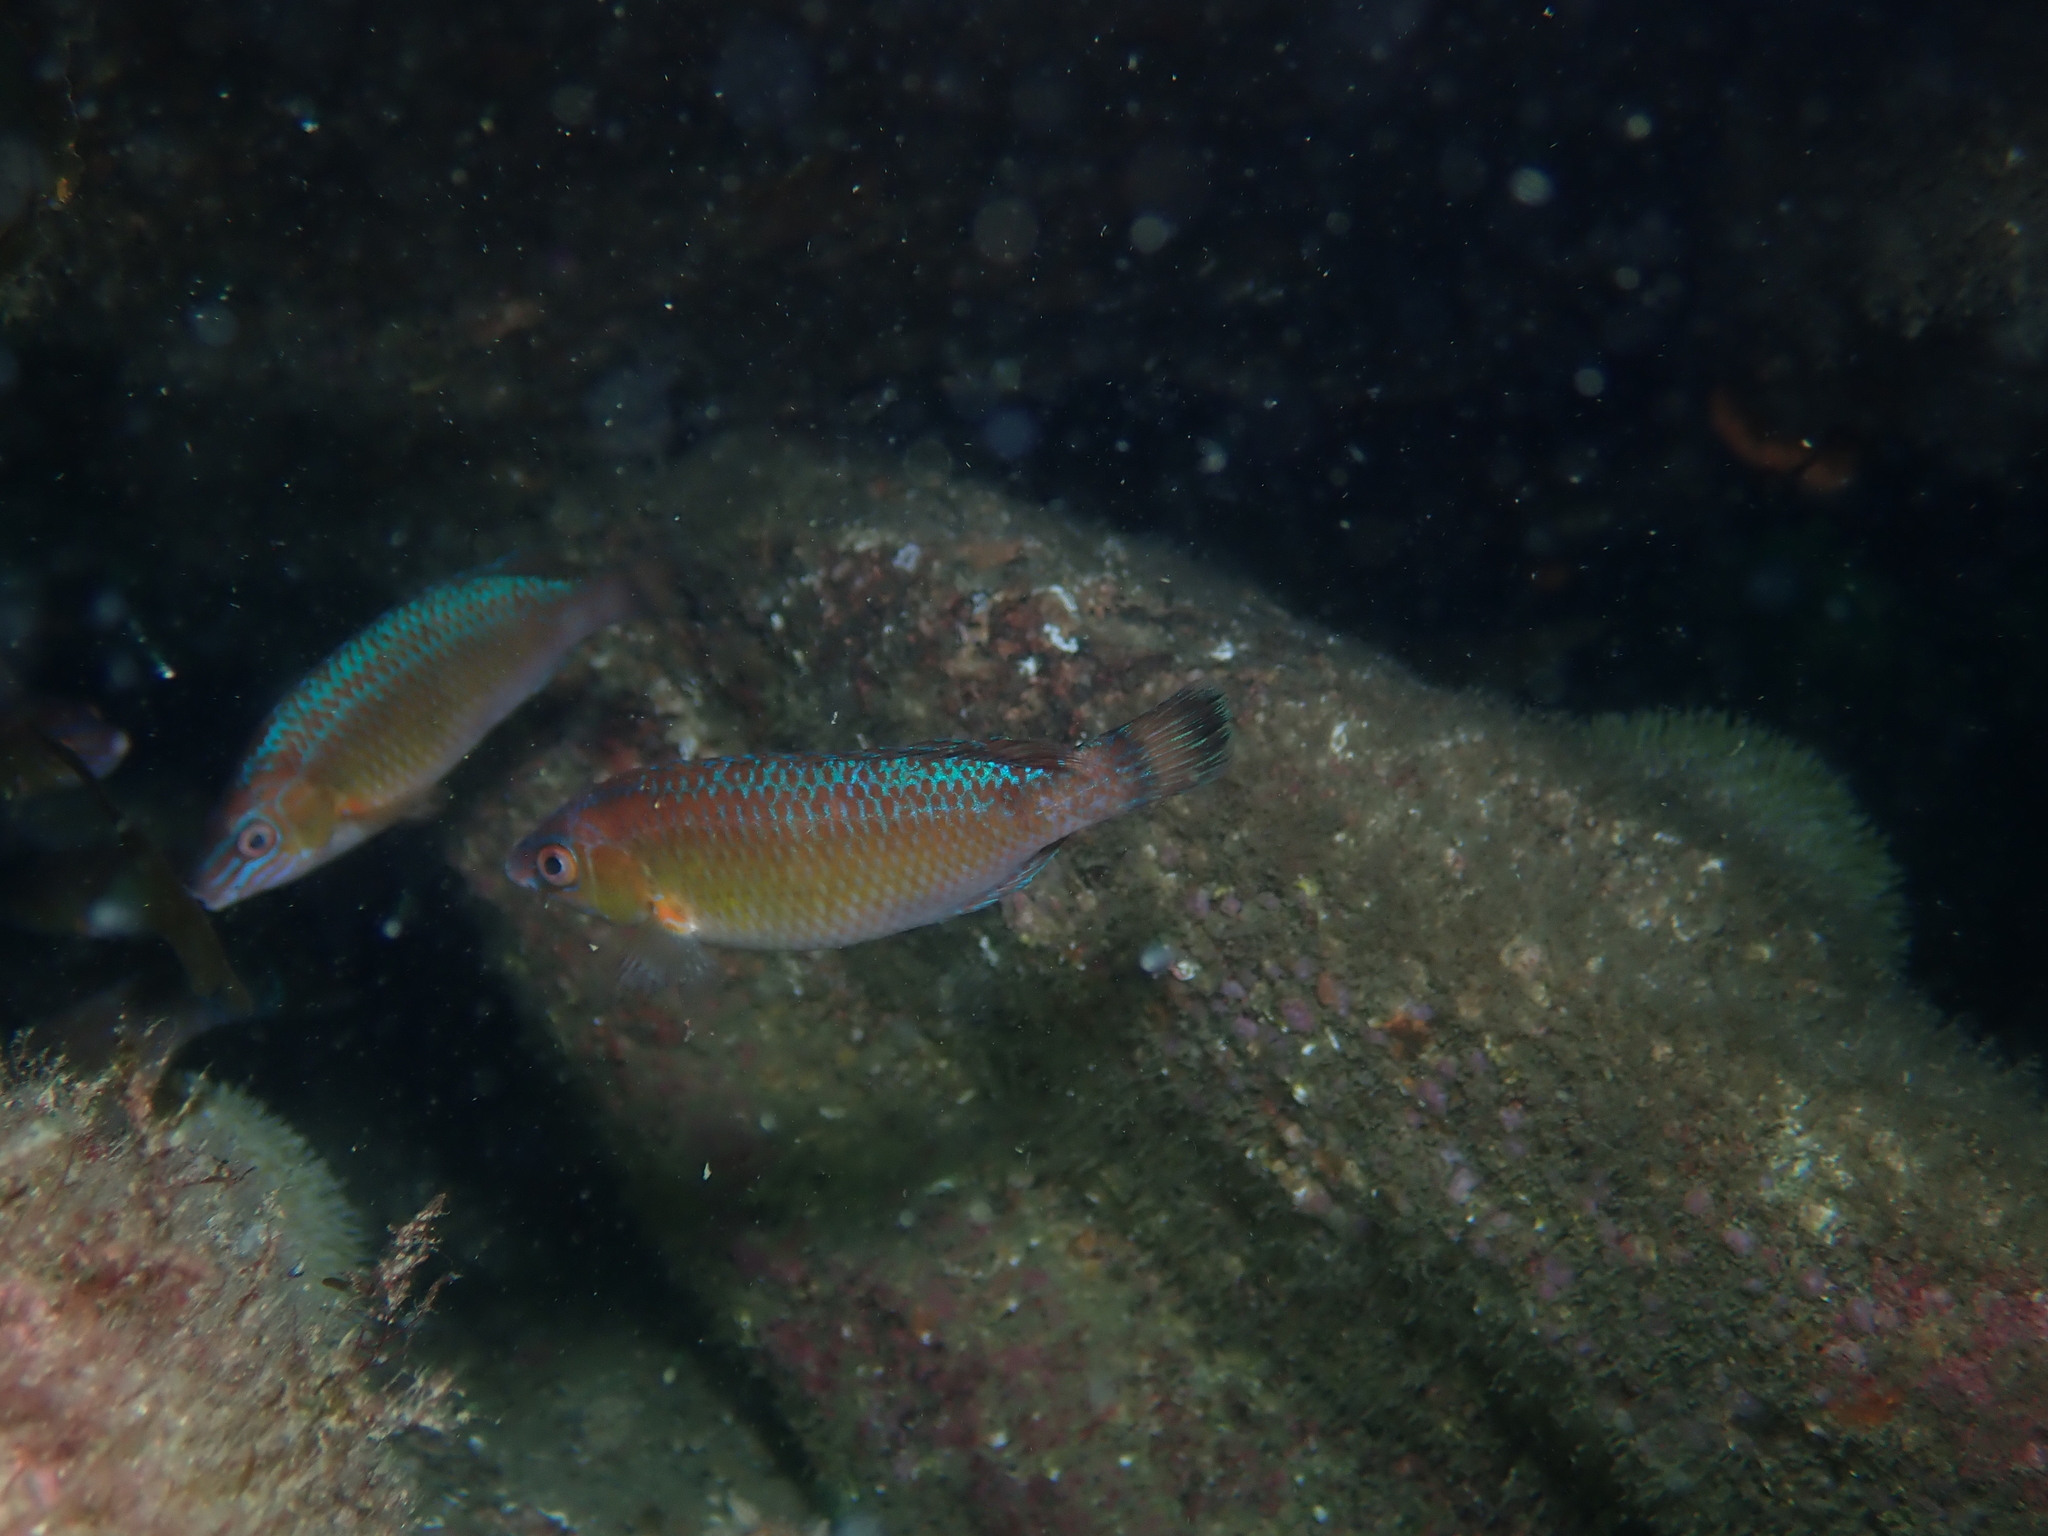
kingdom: Animalia
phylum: Chordata
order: Perciformes
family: Labridae
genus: Centrolabrus
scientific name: Centrolabrus exoletus
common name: Rock cook
